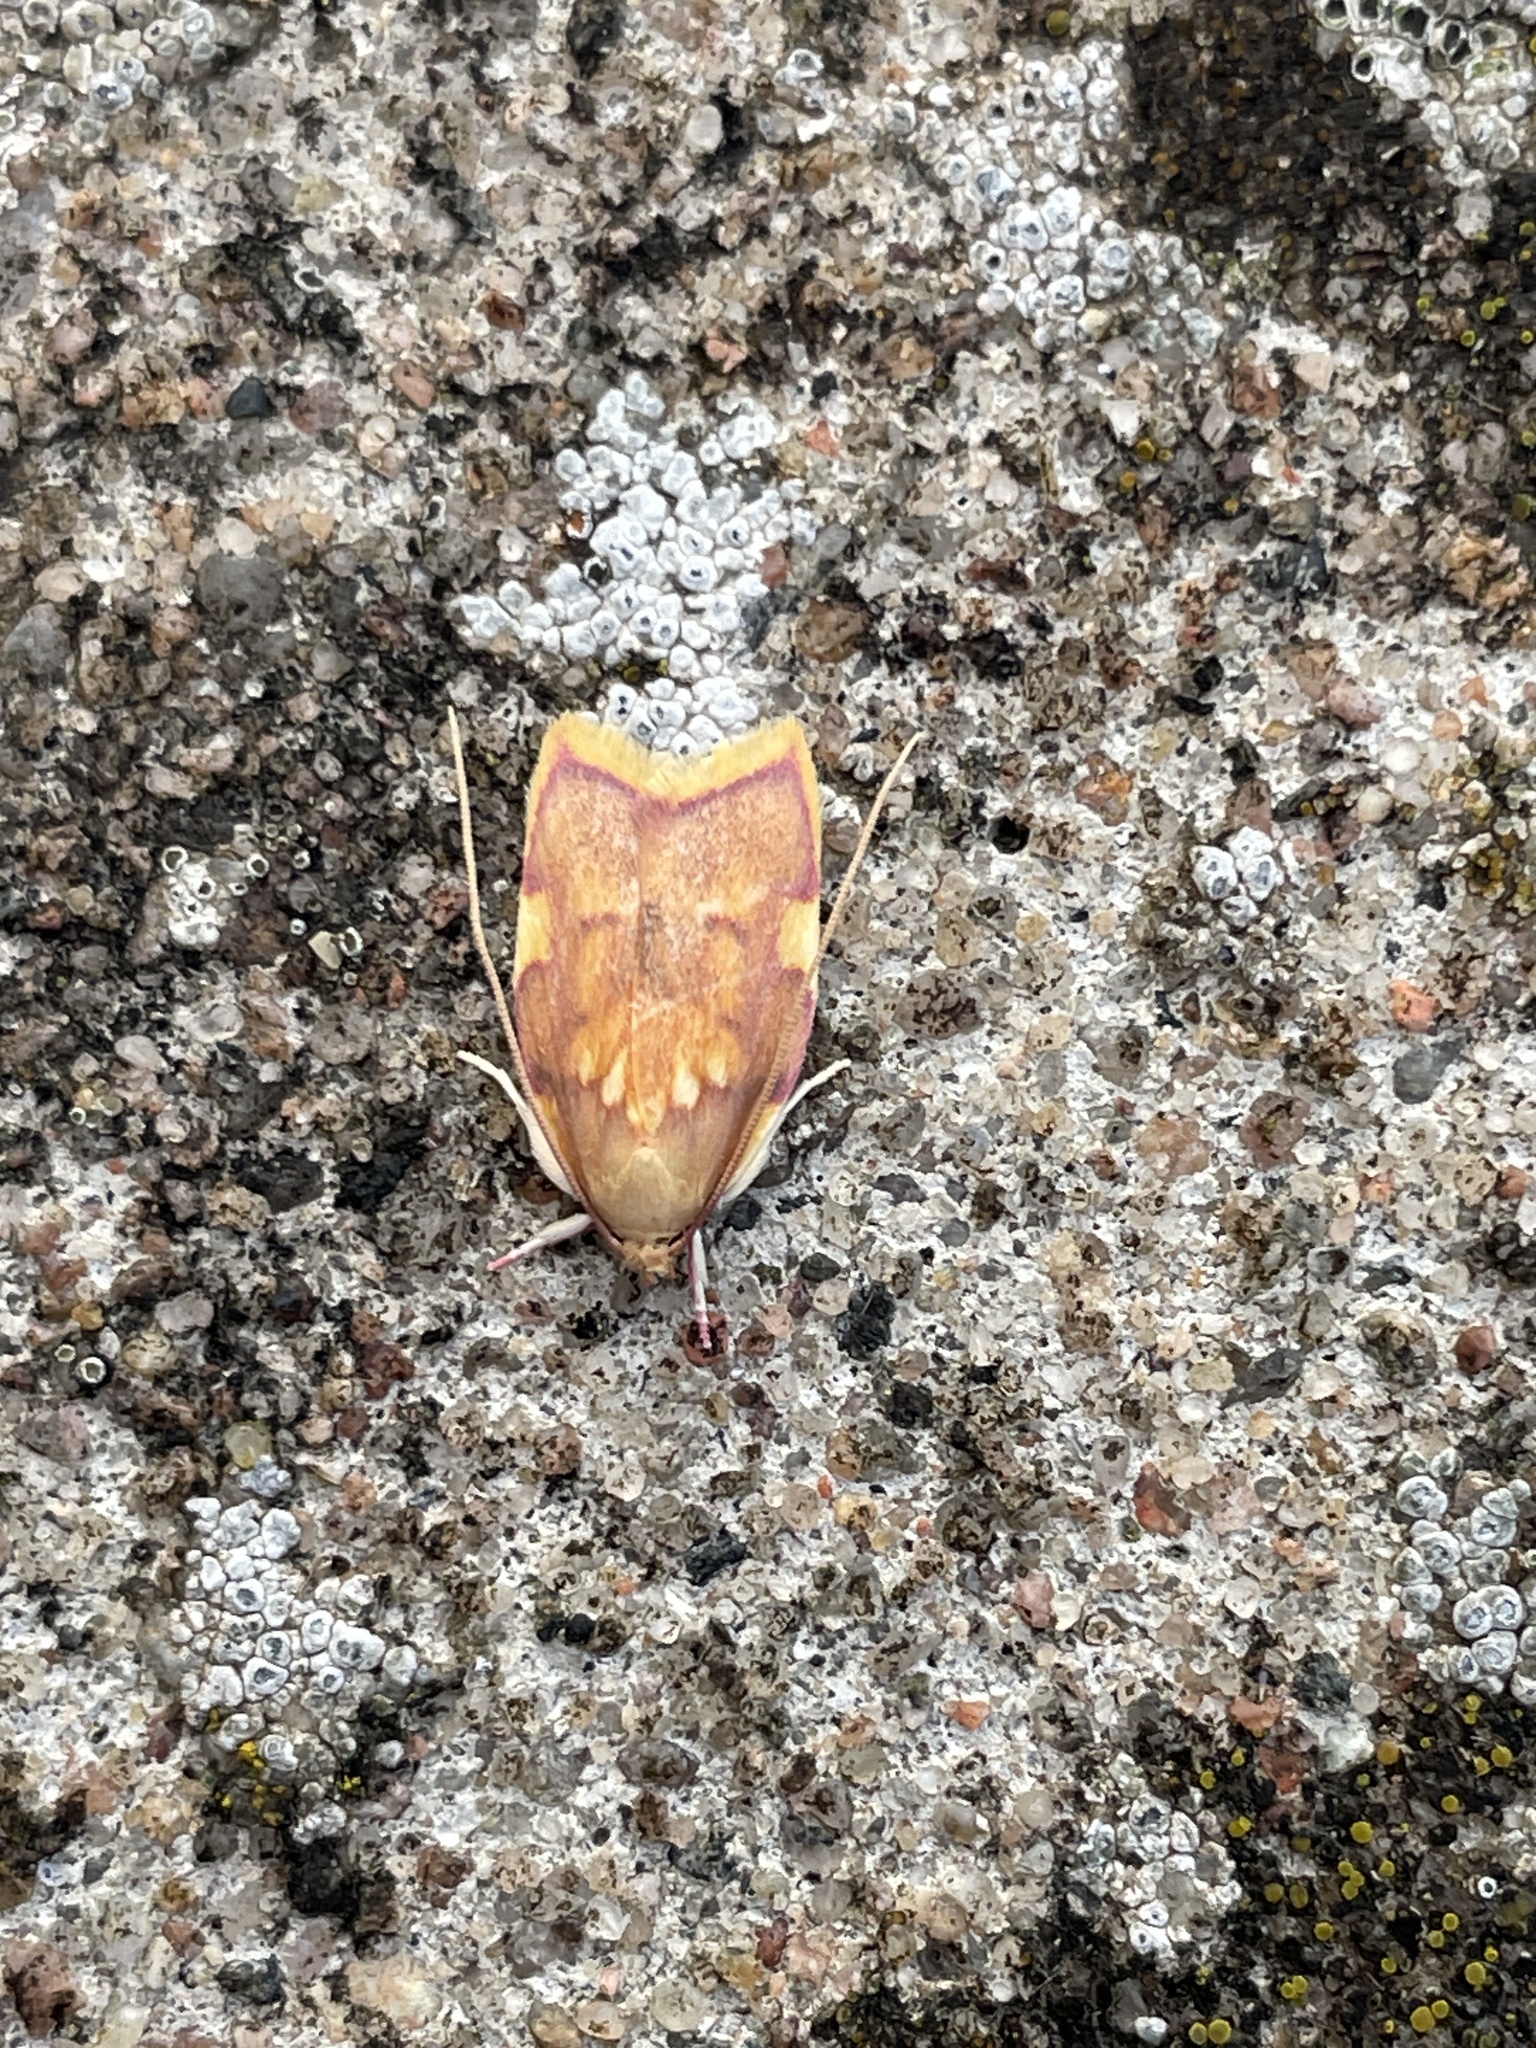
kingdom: Animalia
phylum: Arthropoda
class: Insecta
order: Lepidoptera
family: Peleopodidae
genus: Carcina
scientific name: Carcina quercana
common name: Moth
